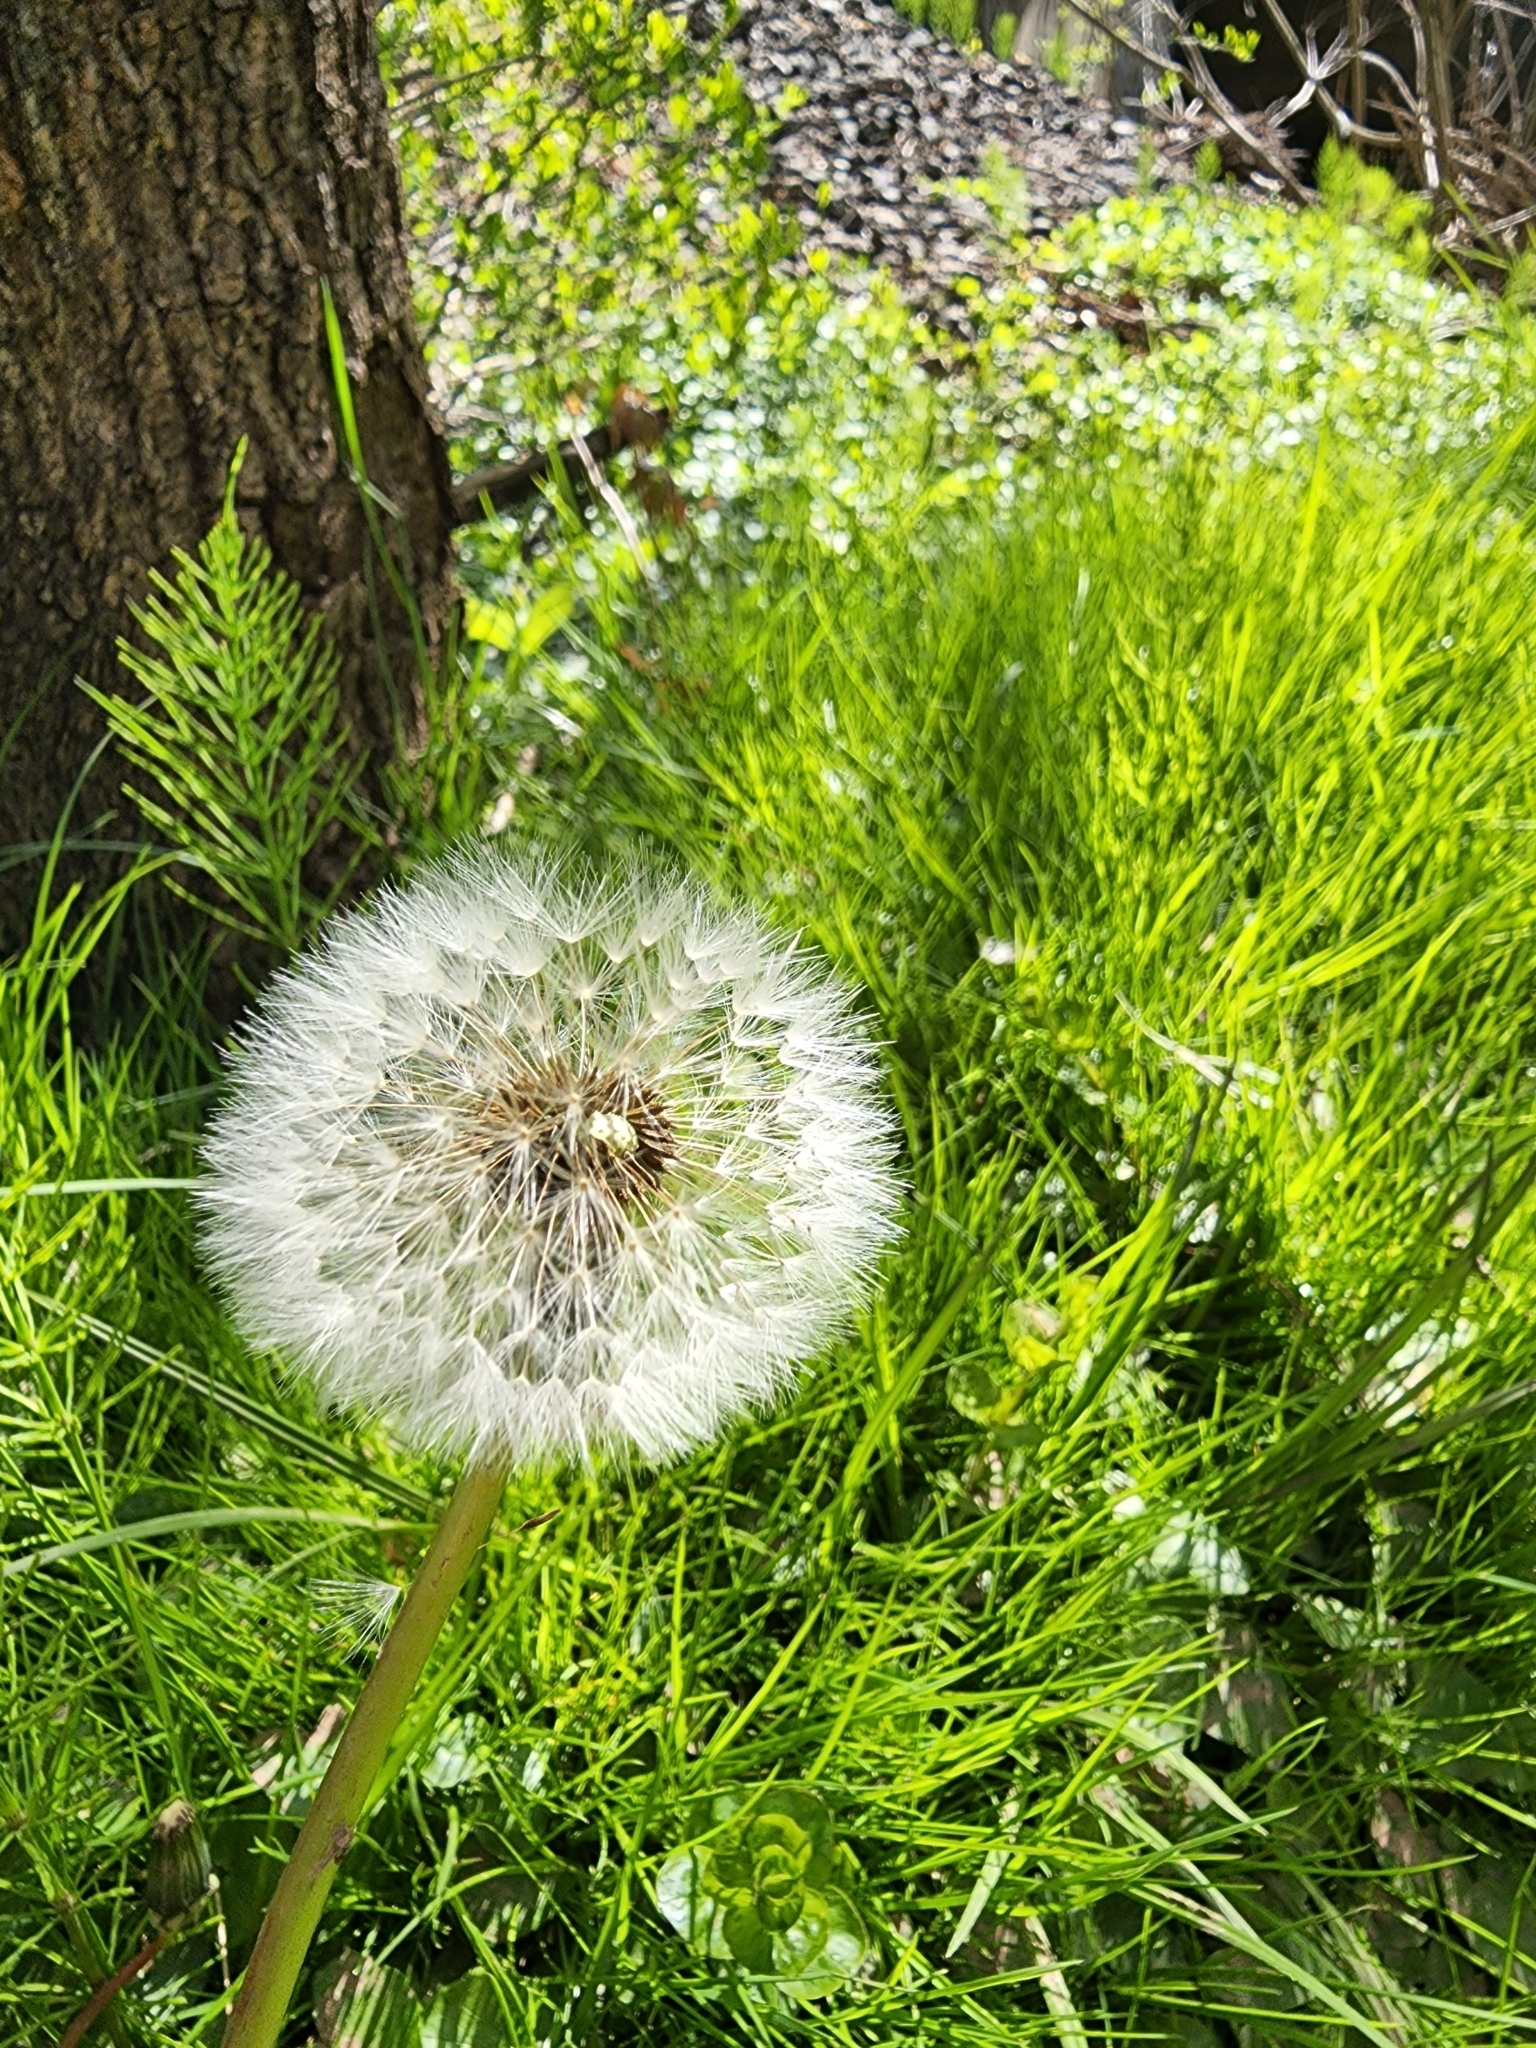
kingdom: Plantae
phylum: Tracheophyta
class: Magnoliopsida
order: Asterales
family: Asteraceae
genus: Taraxacum
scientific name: Taraxacum officinale
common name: Common dandelion
